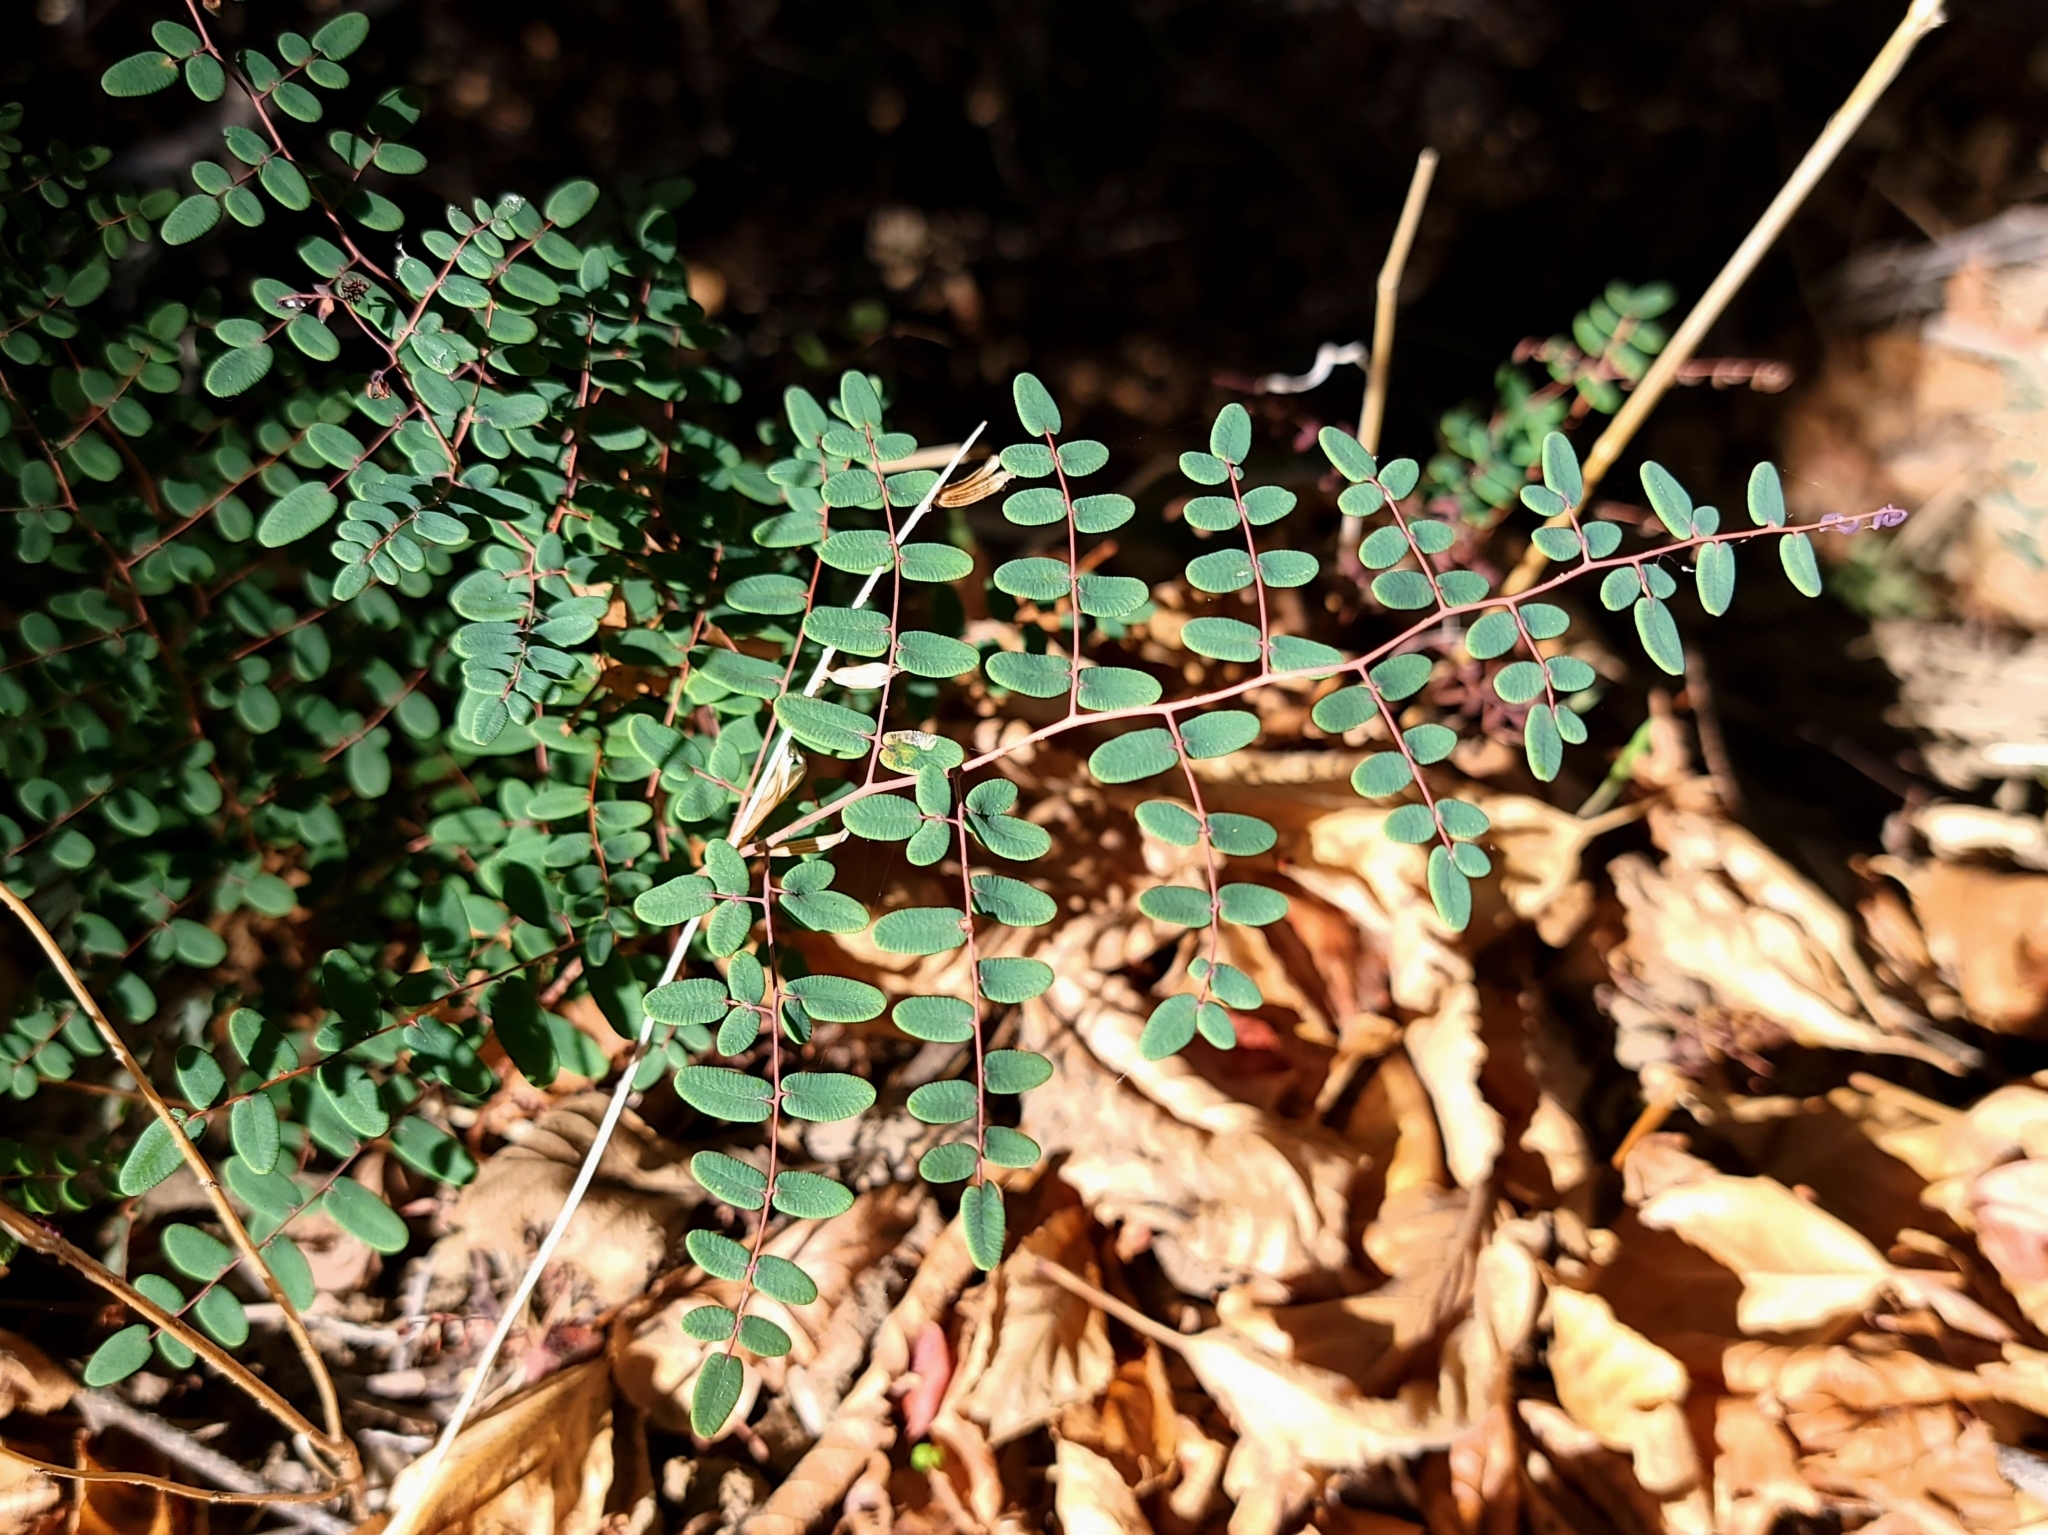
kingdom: Plantae
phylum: Tracheophyta
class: Polypodiopsida
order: Polypodiales
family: Pteridaceae
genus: Pellaea
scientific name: Pellaea andromedifolia
